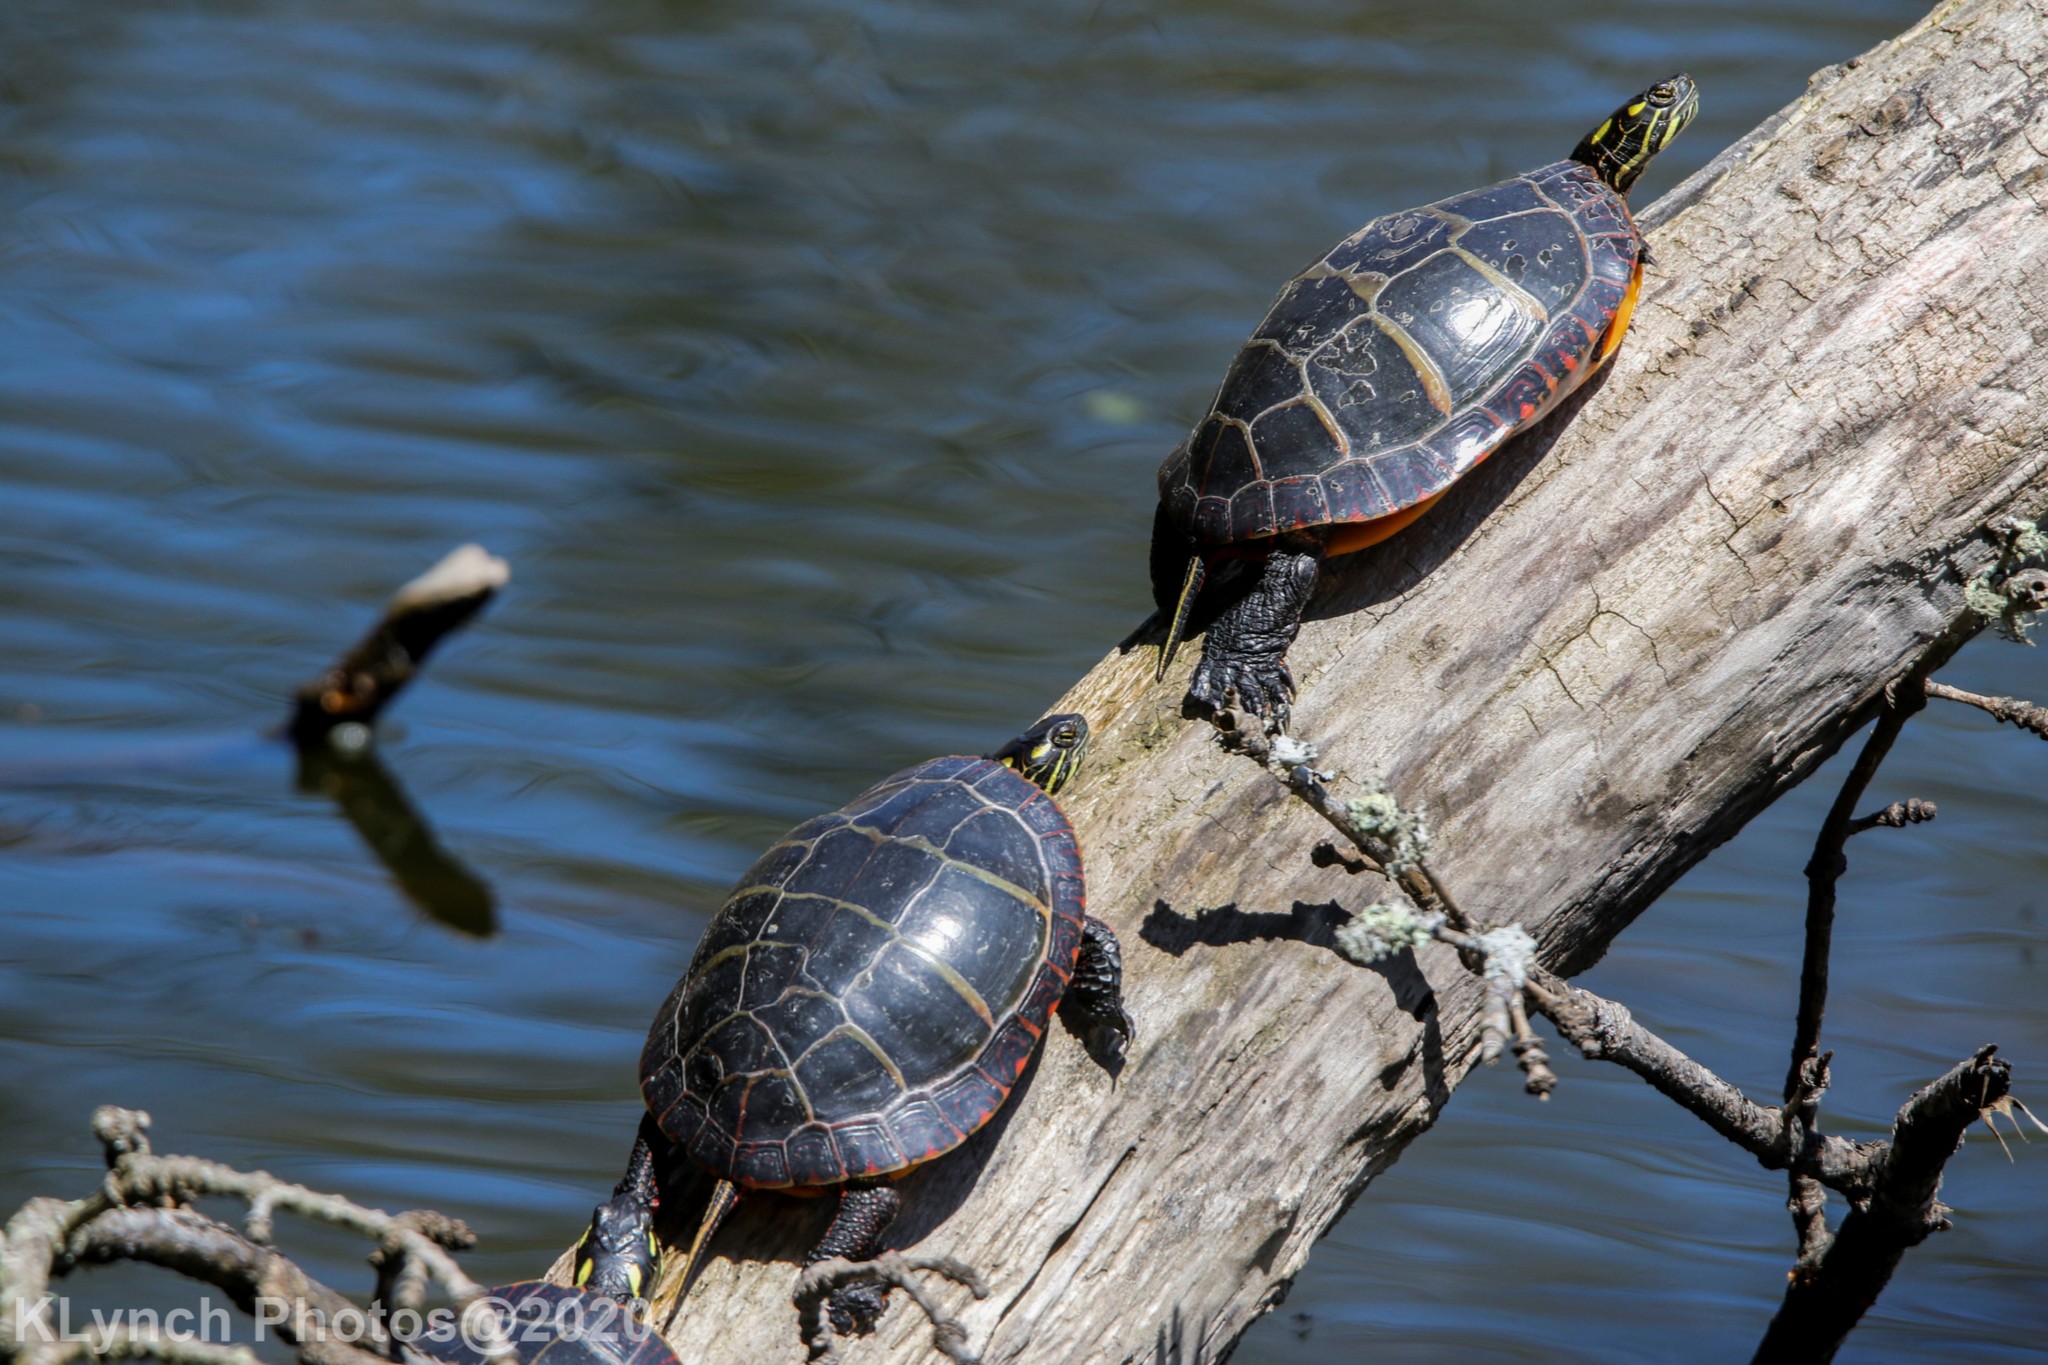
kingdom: Animalia
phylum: Chordata
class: Testudines
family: Emydidae
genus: Chrysemys
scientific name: Chrysemys picta
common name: Painted turtle
